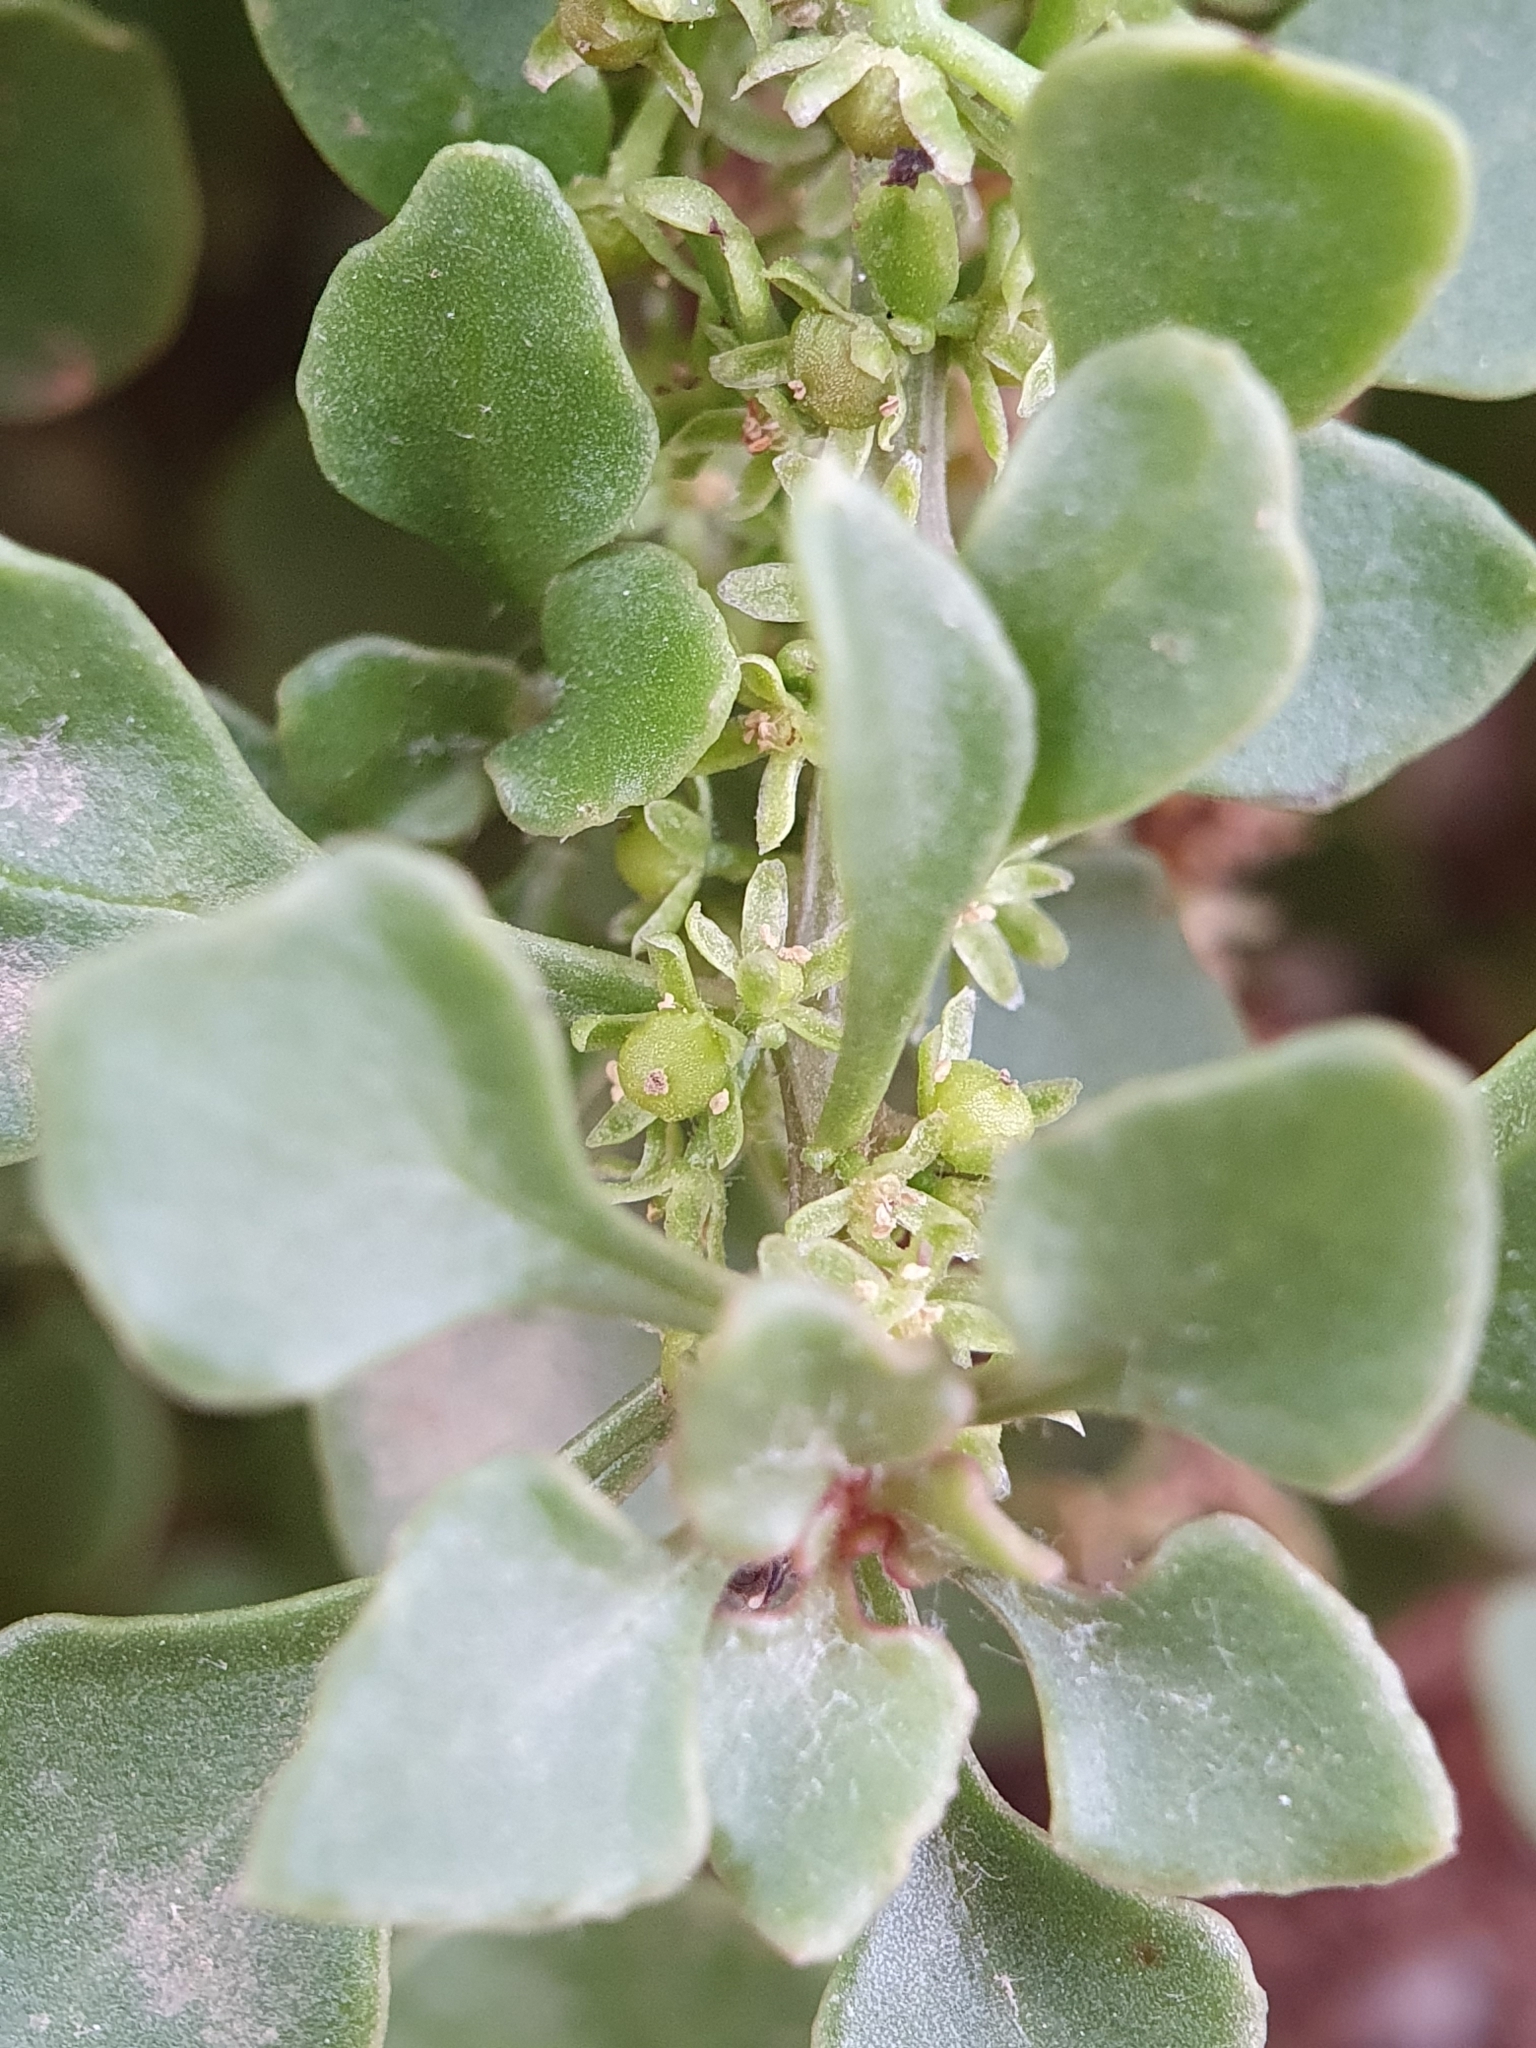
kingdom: Plantae
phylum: Tracheophyta
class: Magnoliopsida
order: Caryophyllales
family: Amaranthaceae
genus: Oreobliton
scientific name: Oreobliton thesioides
